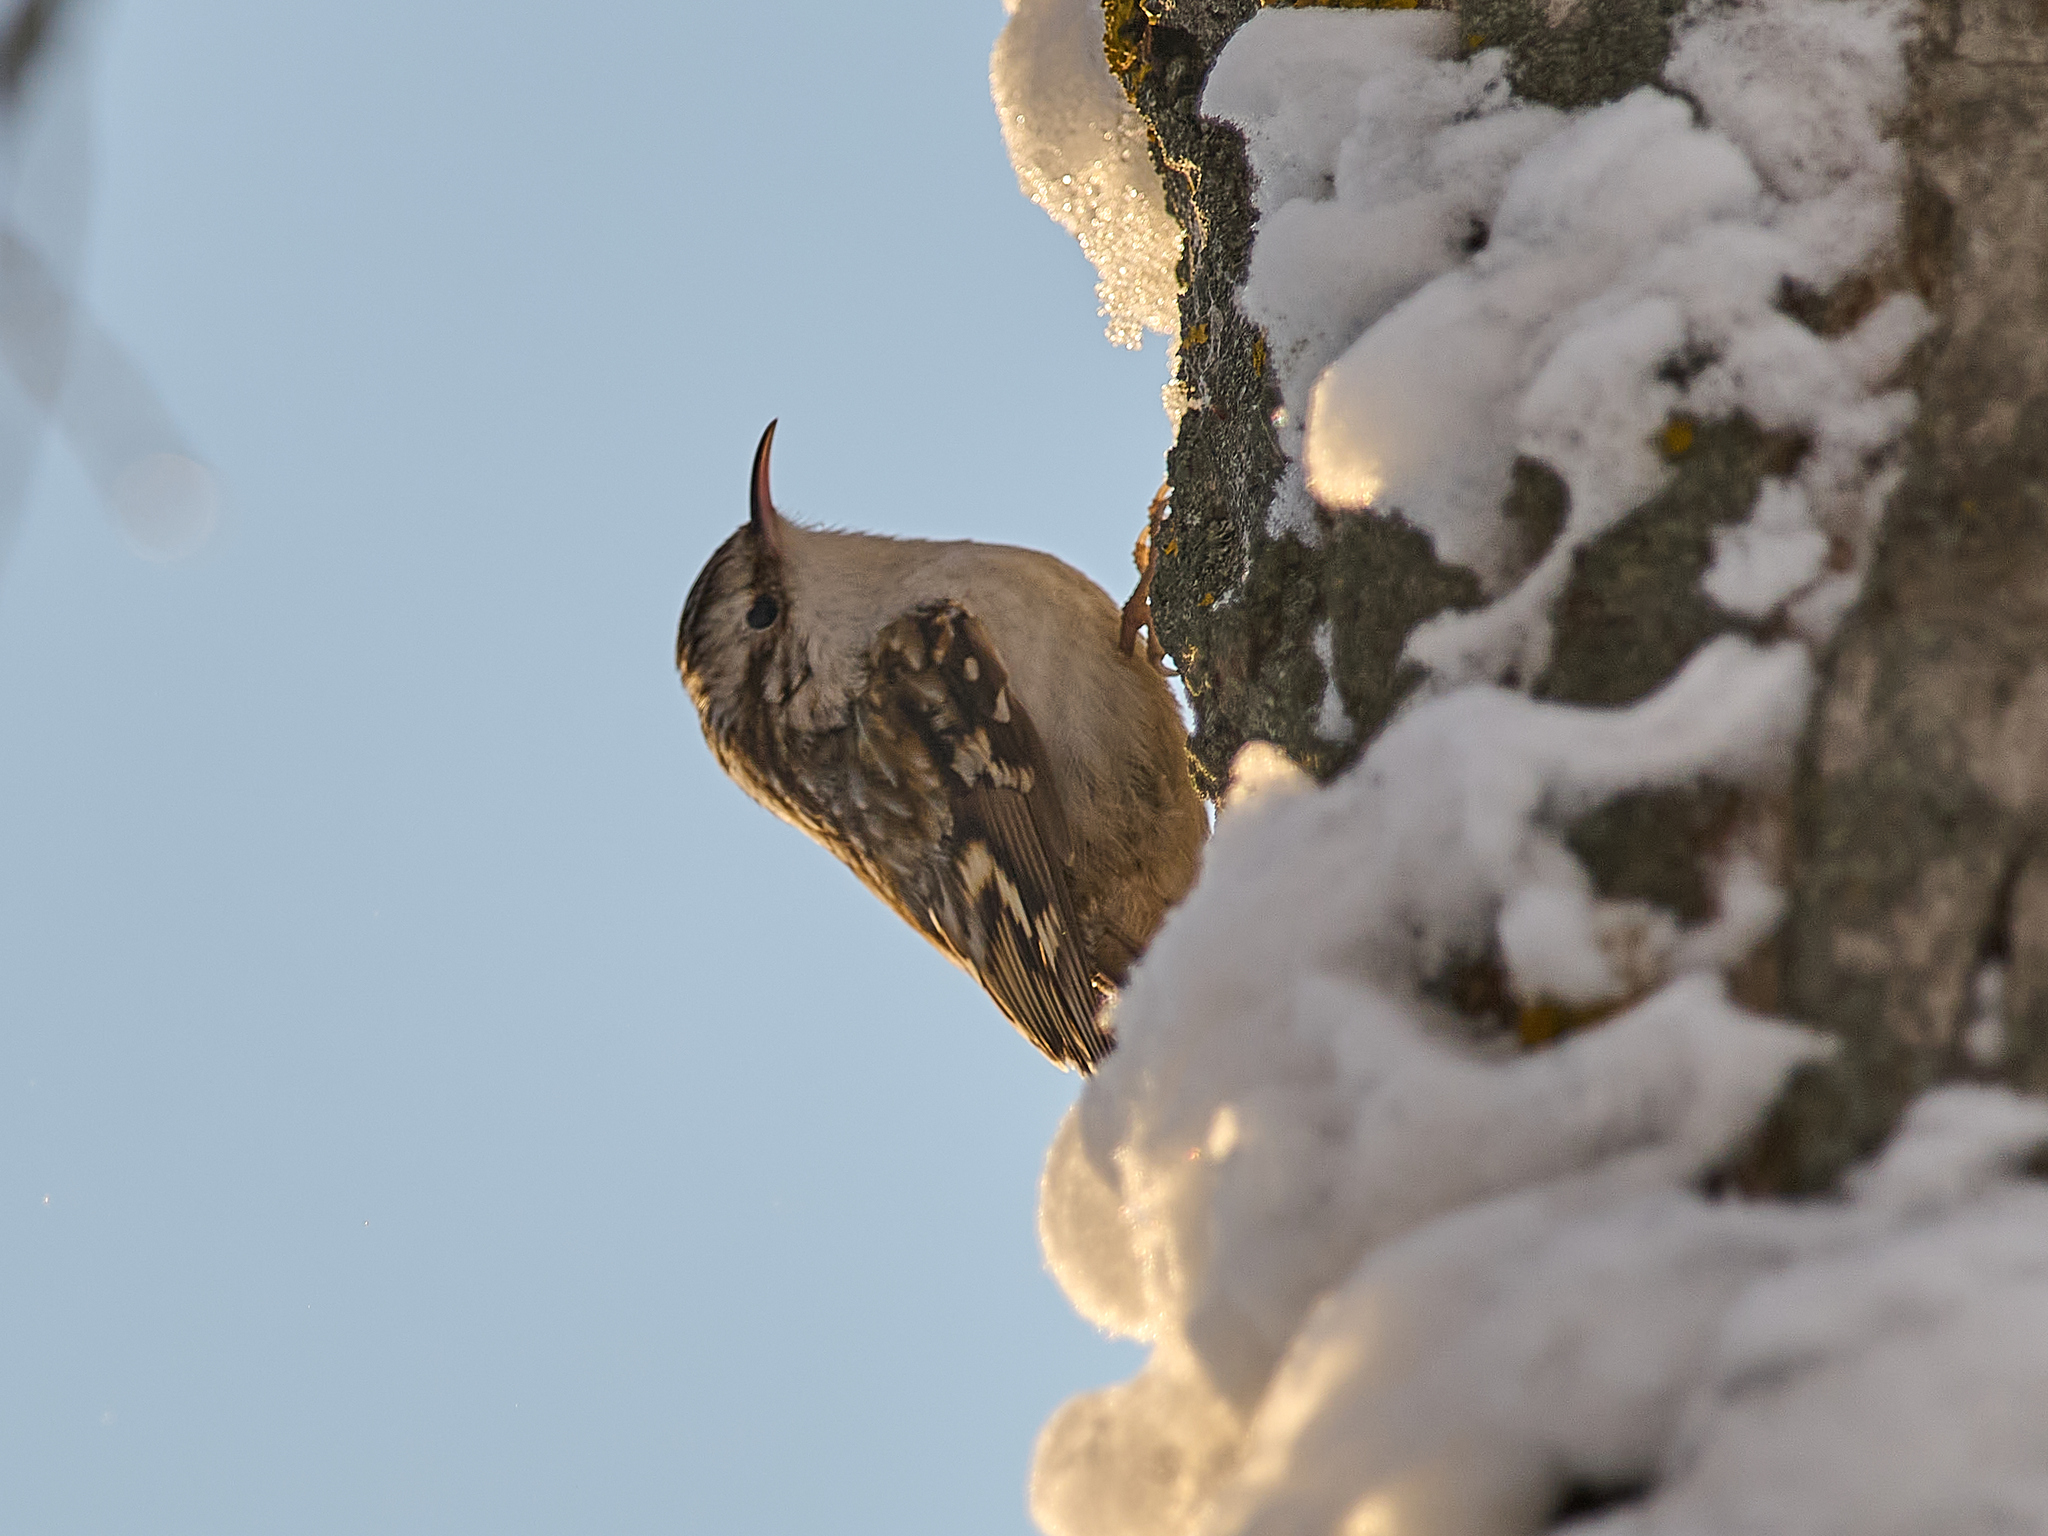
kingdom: Animalia
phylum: Chordata
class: Aves
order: Passeriformes
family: Certhiidae
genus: Certhia
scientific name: Certhia familiaris
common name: Eurasian treecreeper
